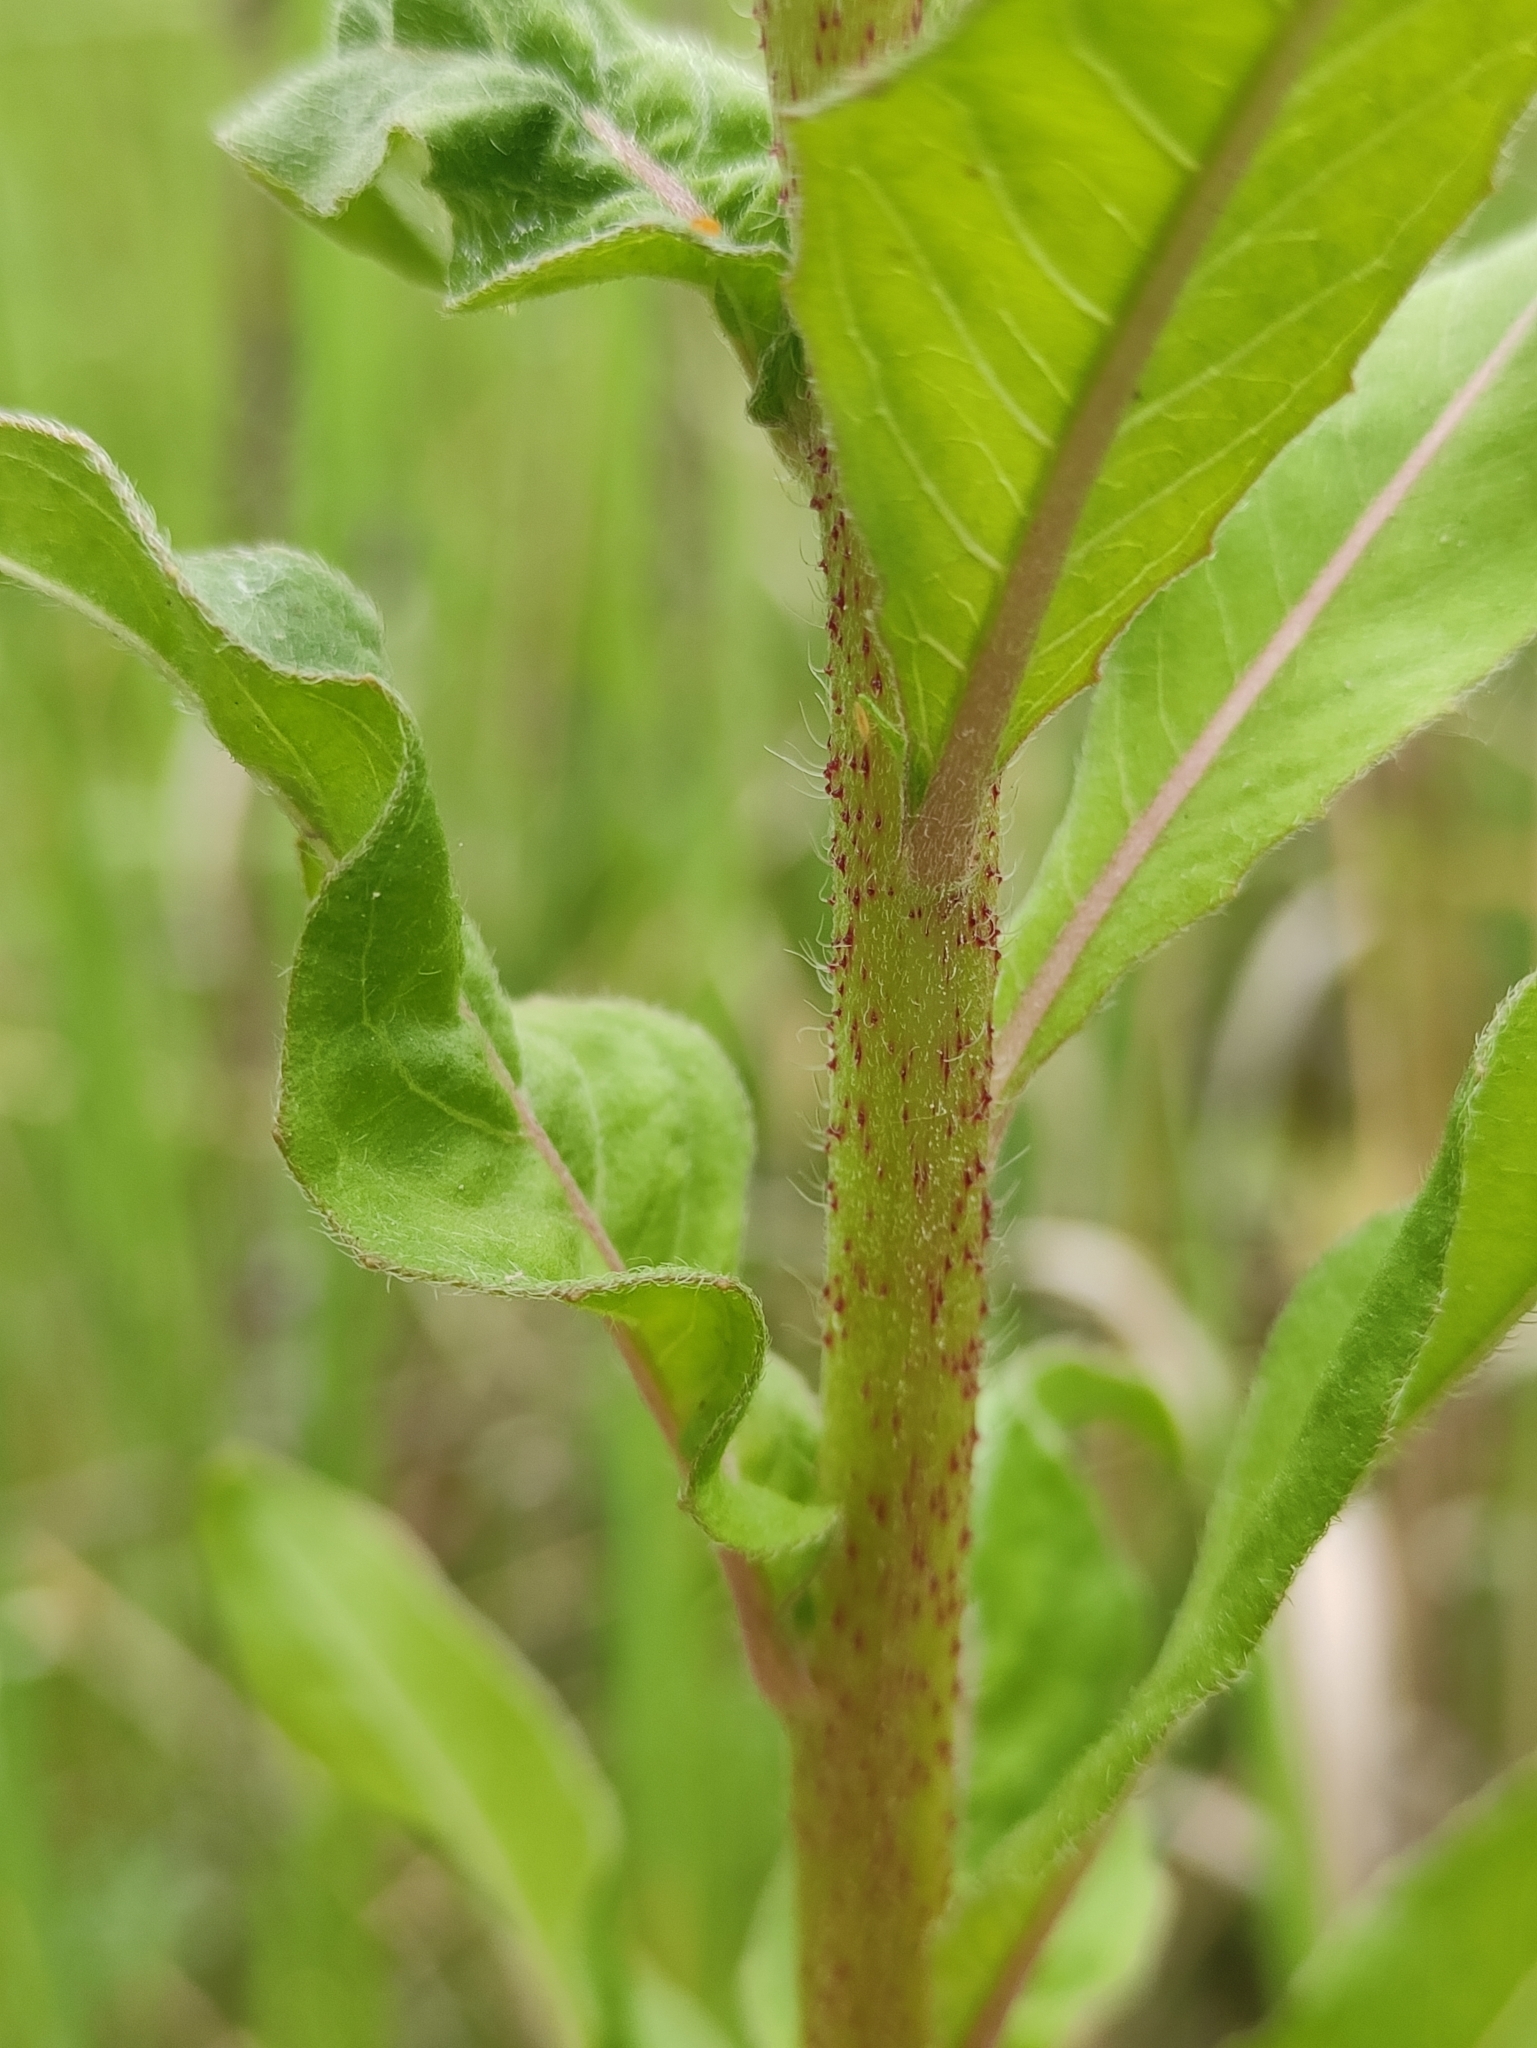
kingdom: Plantae
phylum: Tracheophyta
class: Magnoliopsida
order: Myrtales
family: Onagraceae
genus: Oenothera
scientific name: Oenothera rubricaulis
